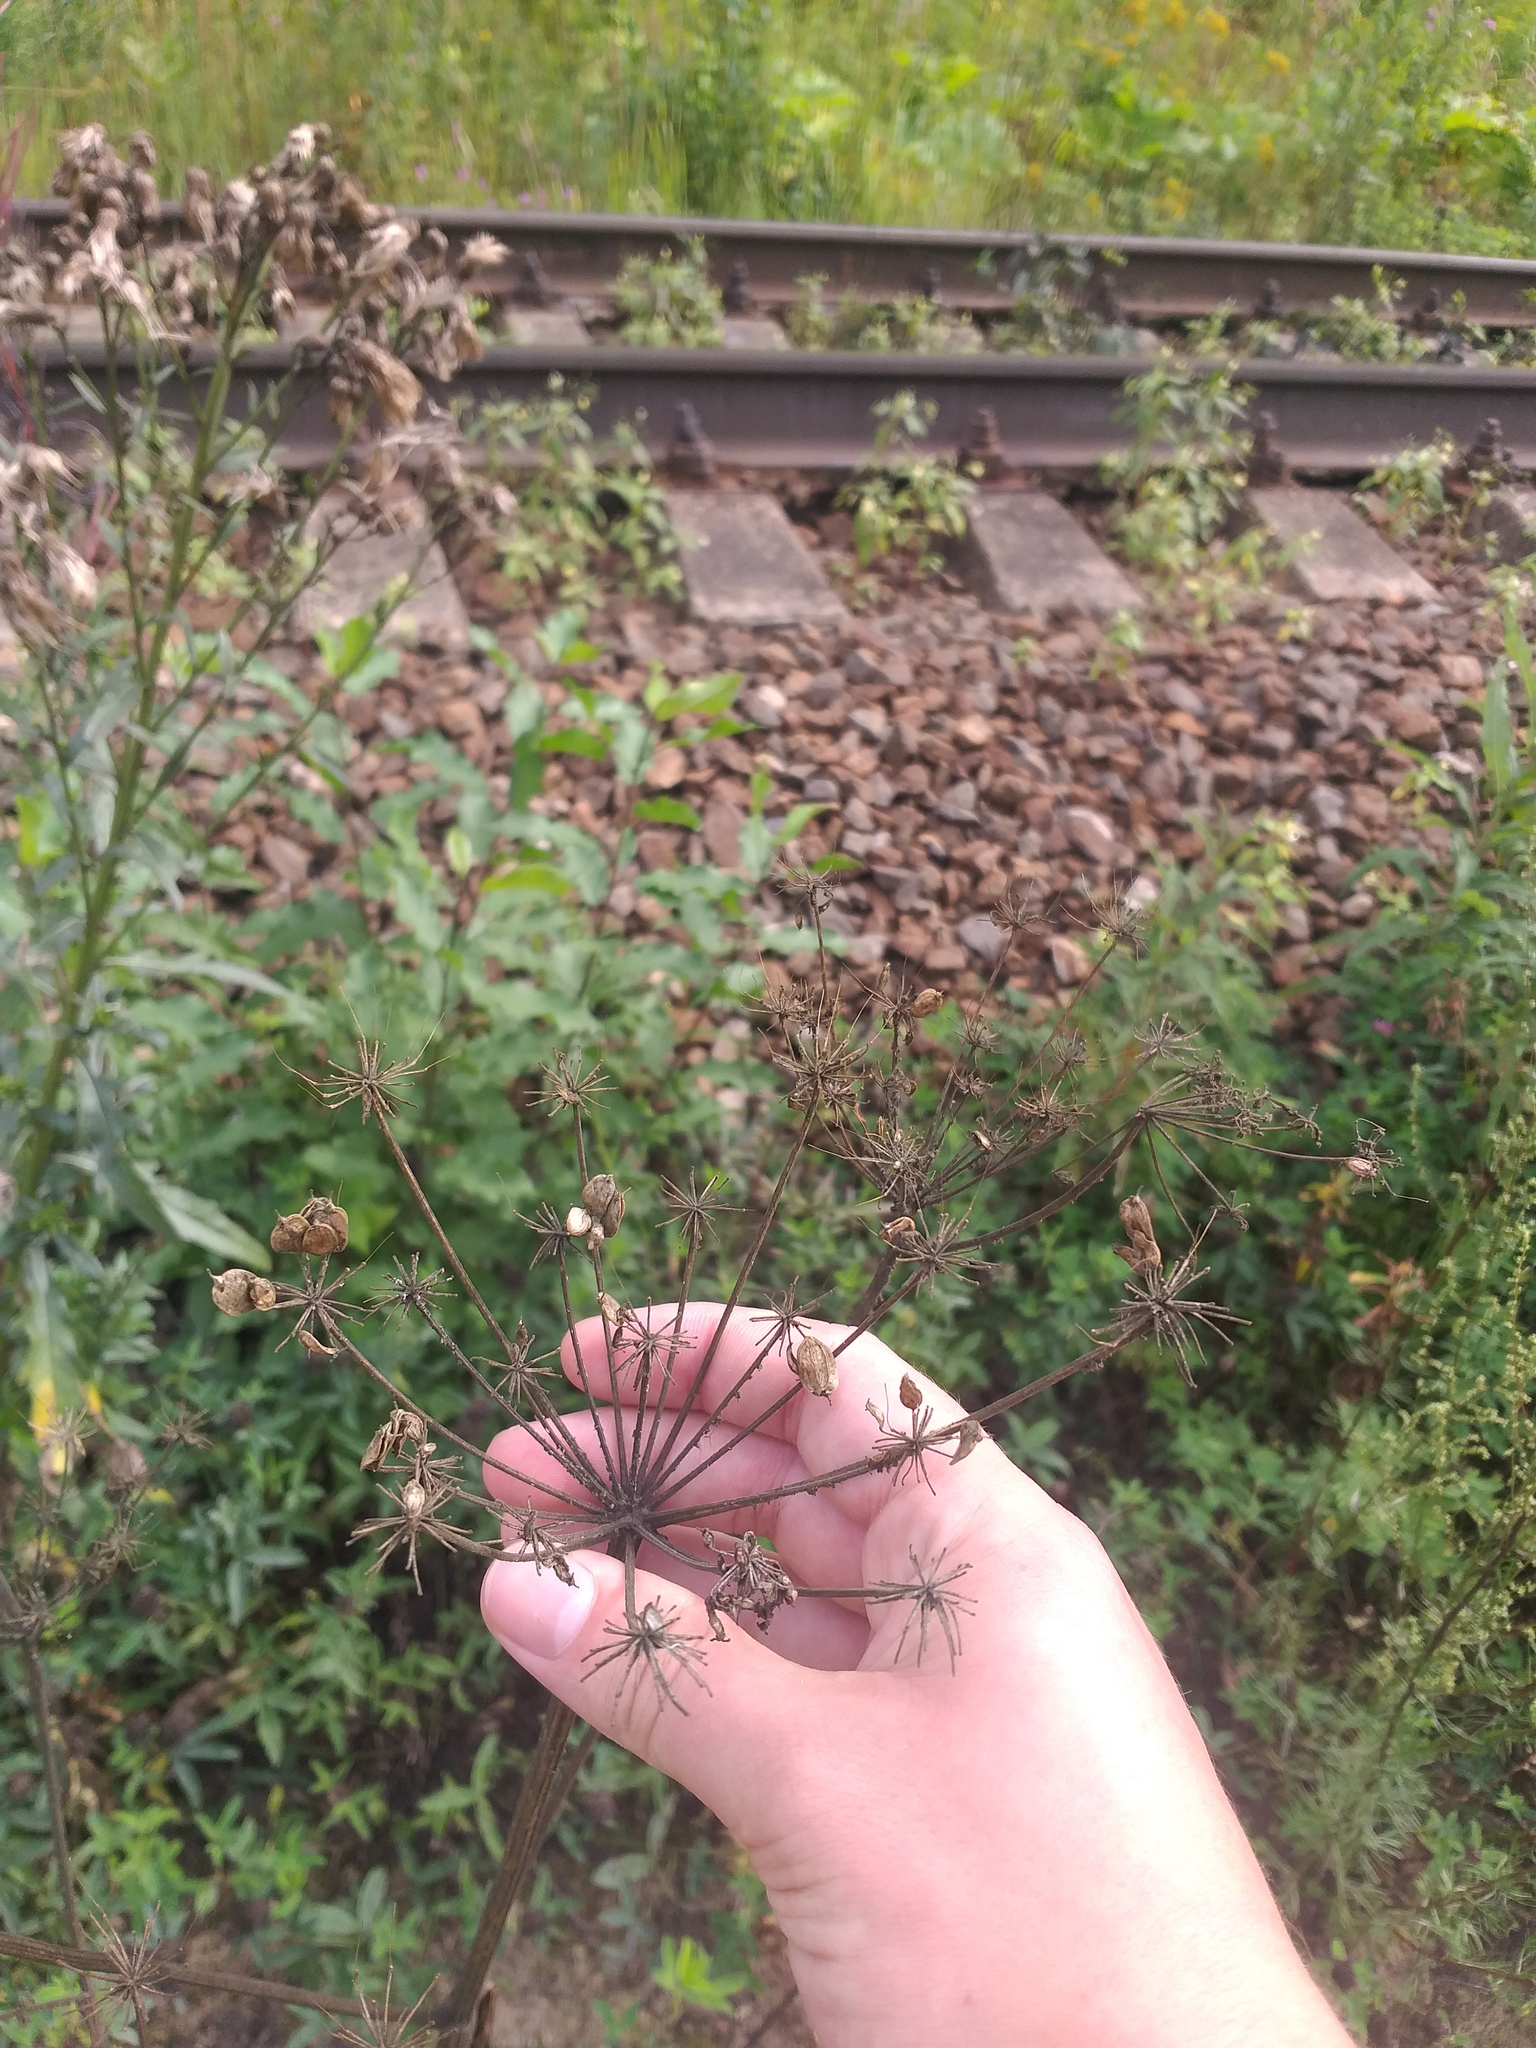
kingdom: Plantae
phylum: Tracheophyta
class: Magnoliopsida
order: Apiales
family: Apiaceae
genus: Heracleum
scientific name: Heracleum sphondylium
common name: Hogweed
